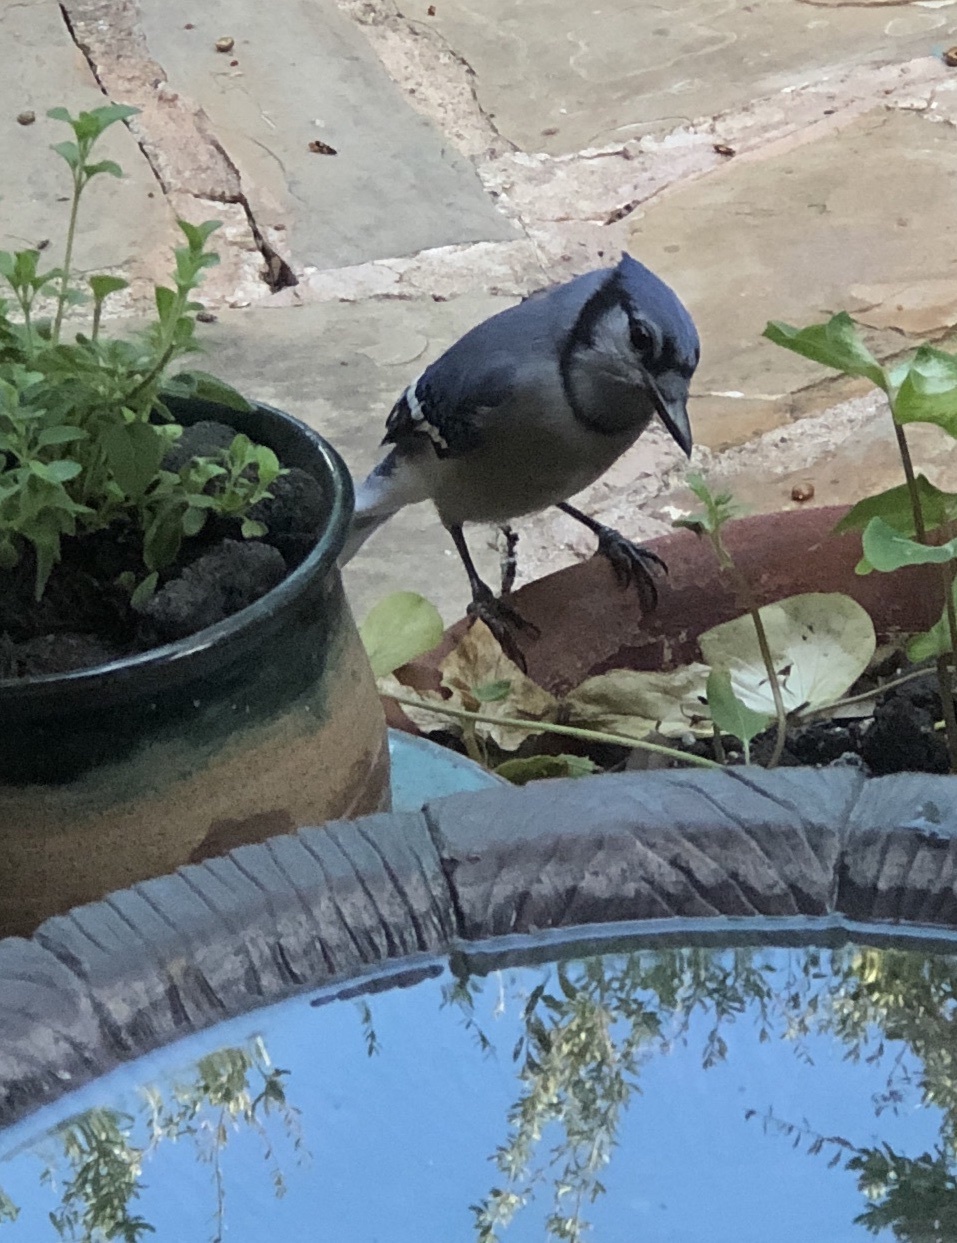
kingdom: Animalia
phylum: Chordata
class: Aves
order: Passeriformes
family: Corvidae
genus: Cyanocitta
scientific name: Cyanocitta cristata
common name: Blue jay
